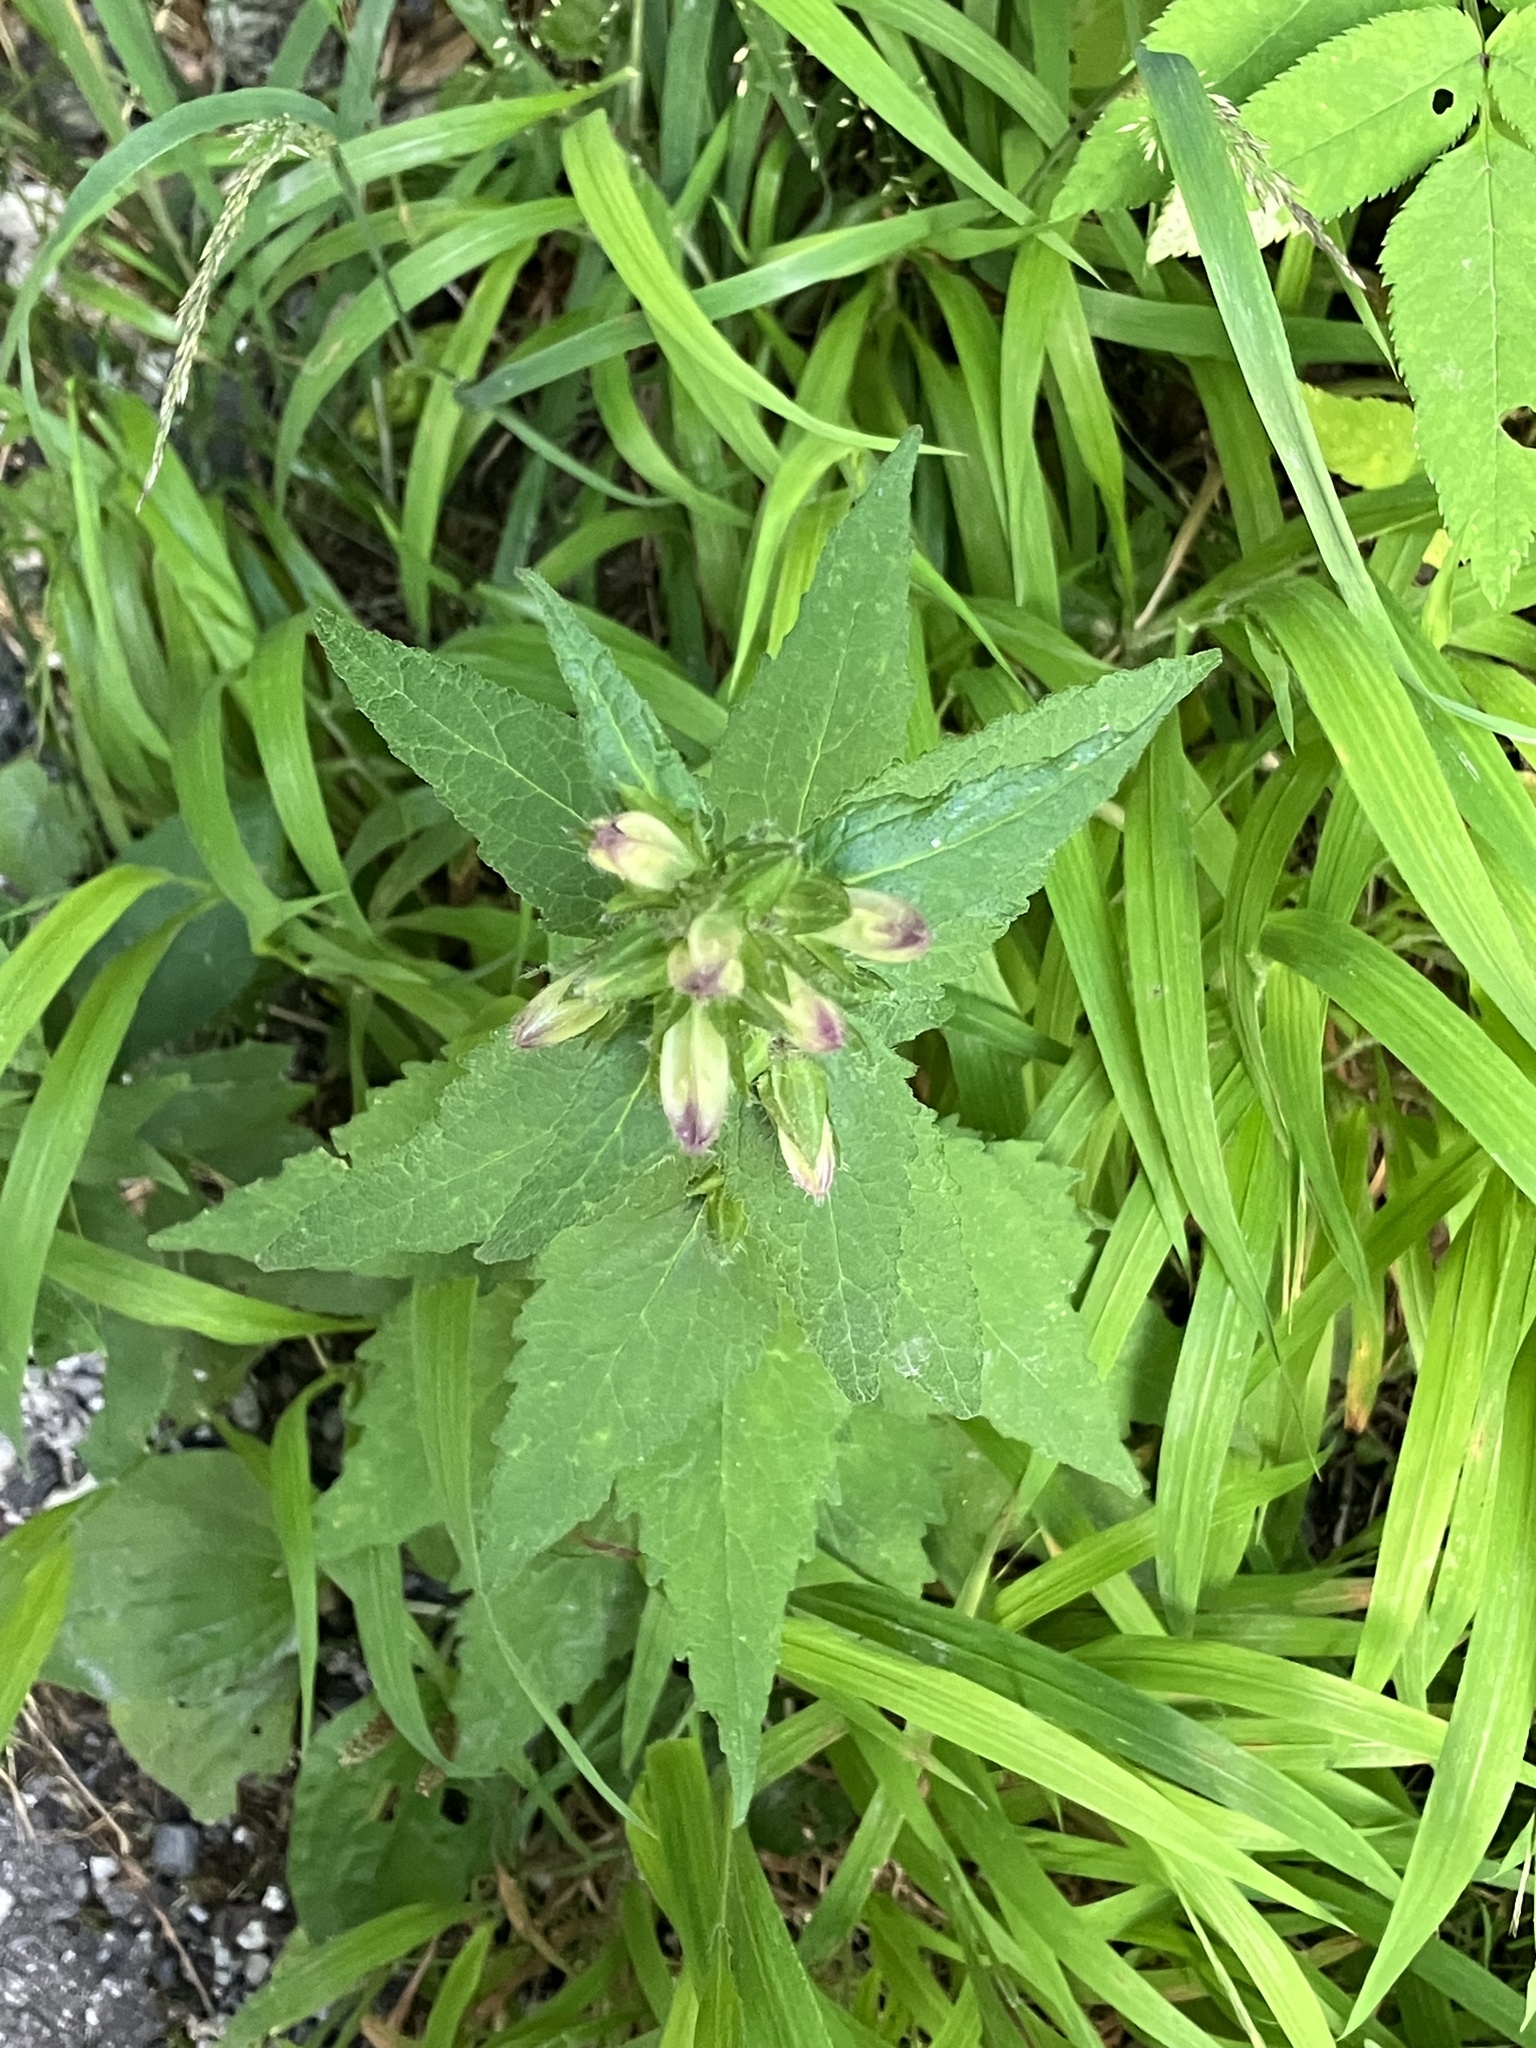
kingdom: Plantae
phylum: Tracheophyta
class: Magnoliopsida
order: Asterales
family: Campanulaceae
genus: Campanula
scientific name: Campanula trachelium
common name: Nettle-leaved bellflower
